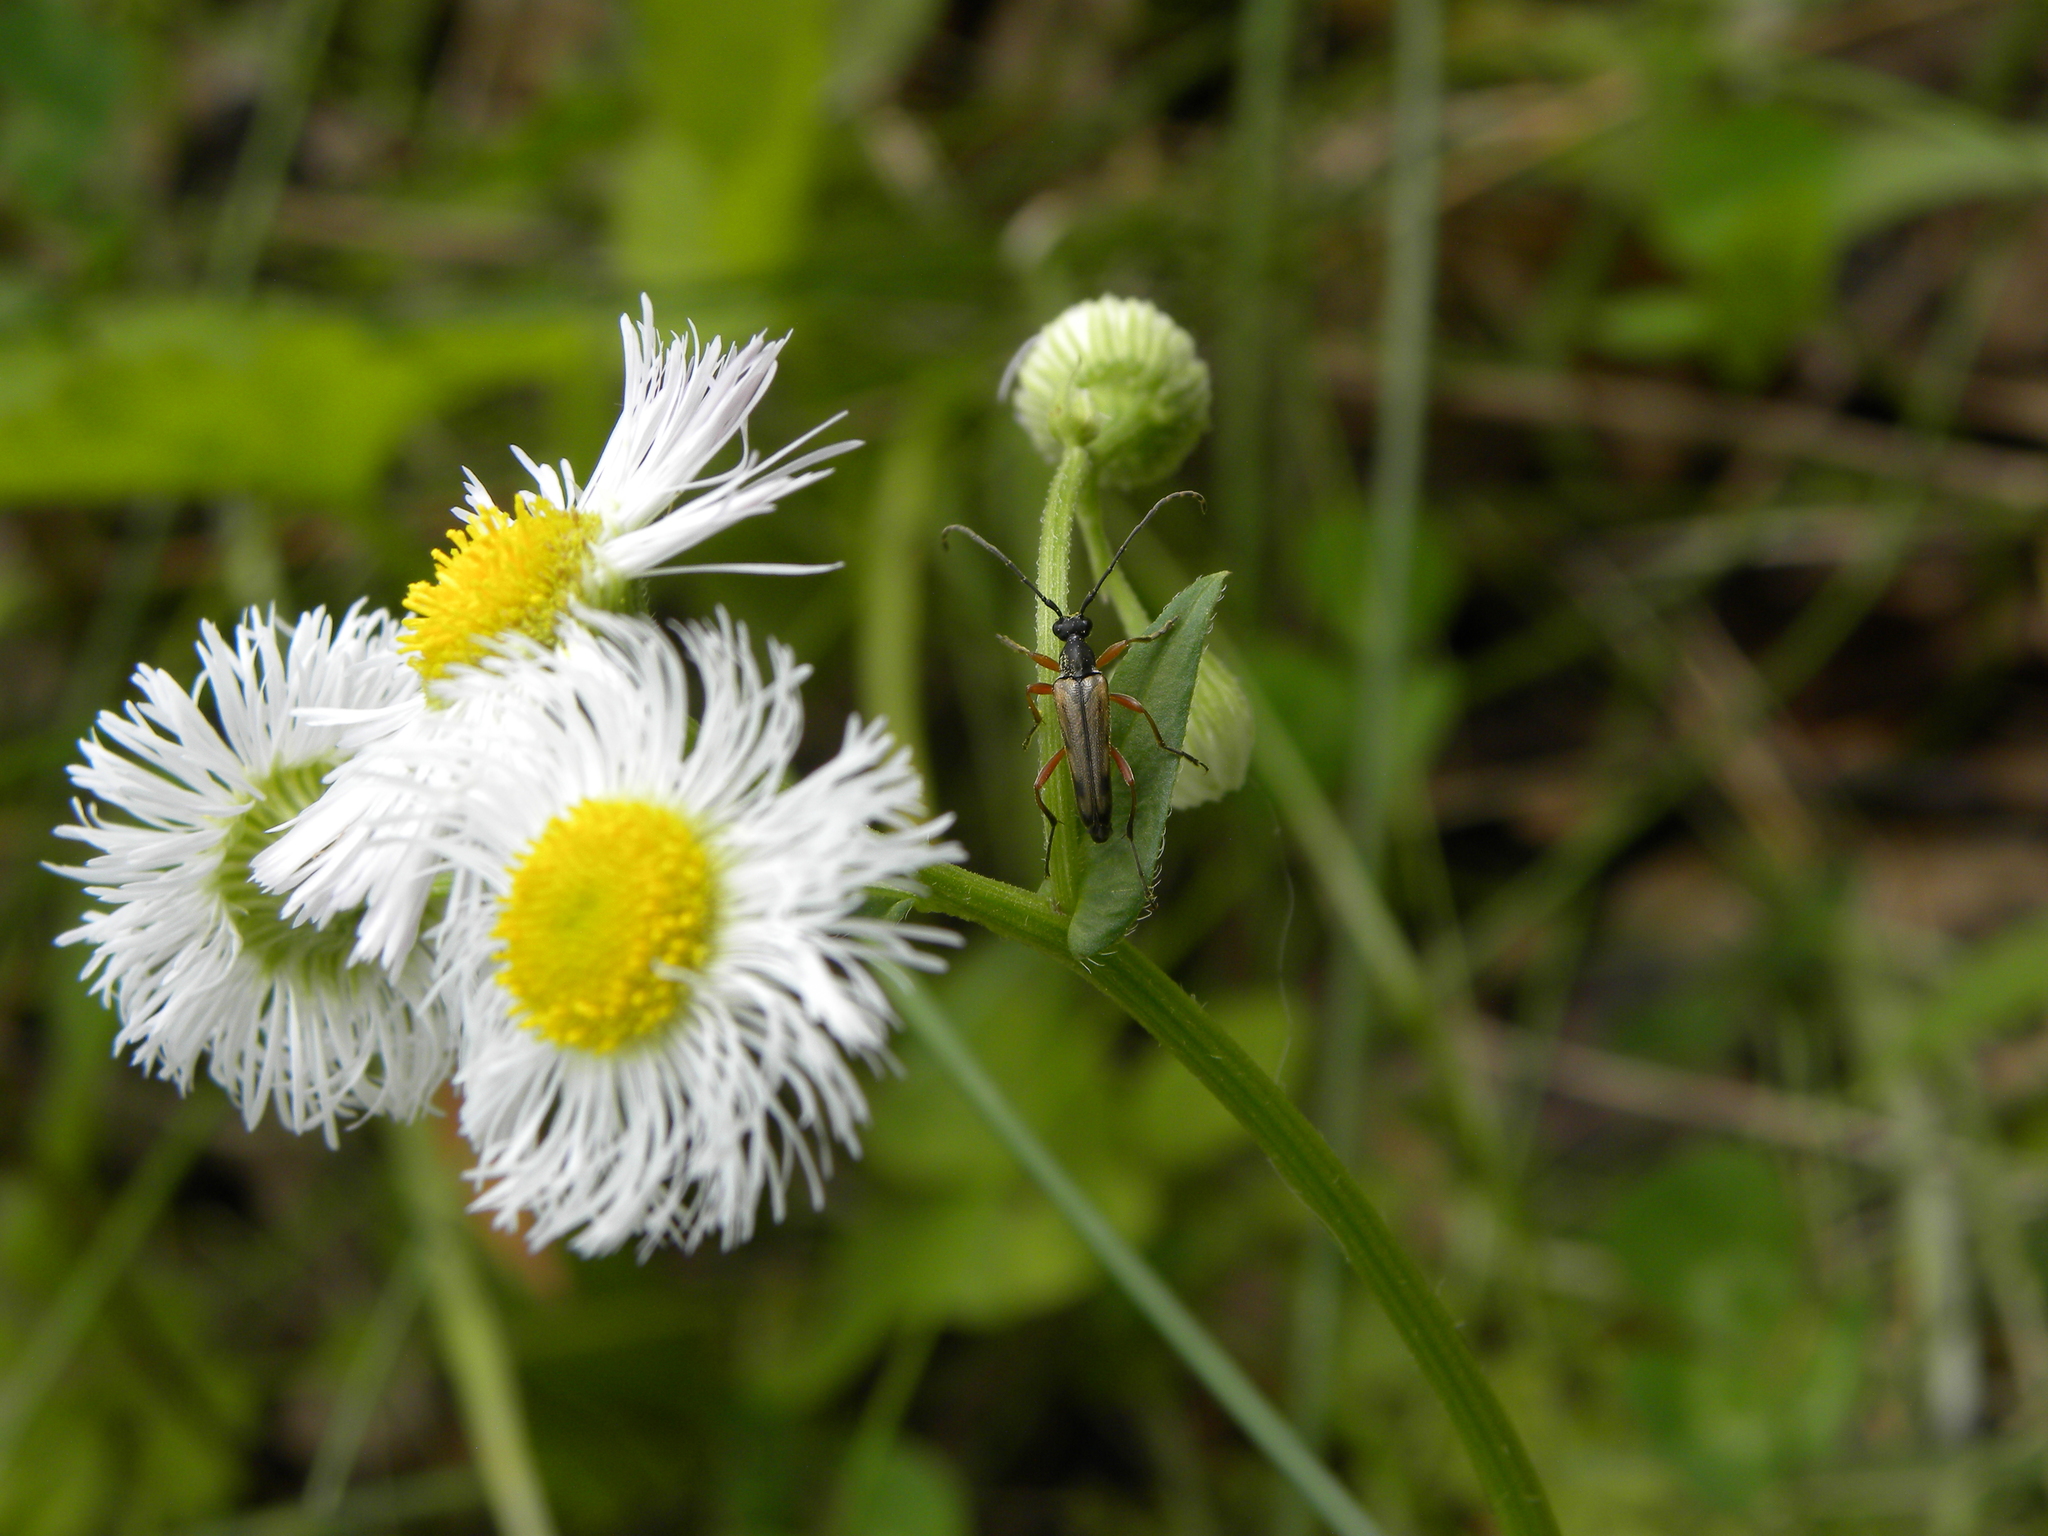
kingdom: Animalia
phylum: Arthropoda
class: Insecta
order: Coleoptera
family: Cerambycidae
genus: Analeptura
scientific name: Analeptura lineola
